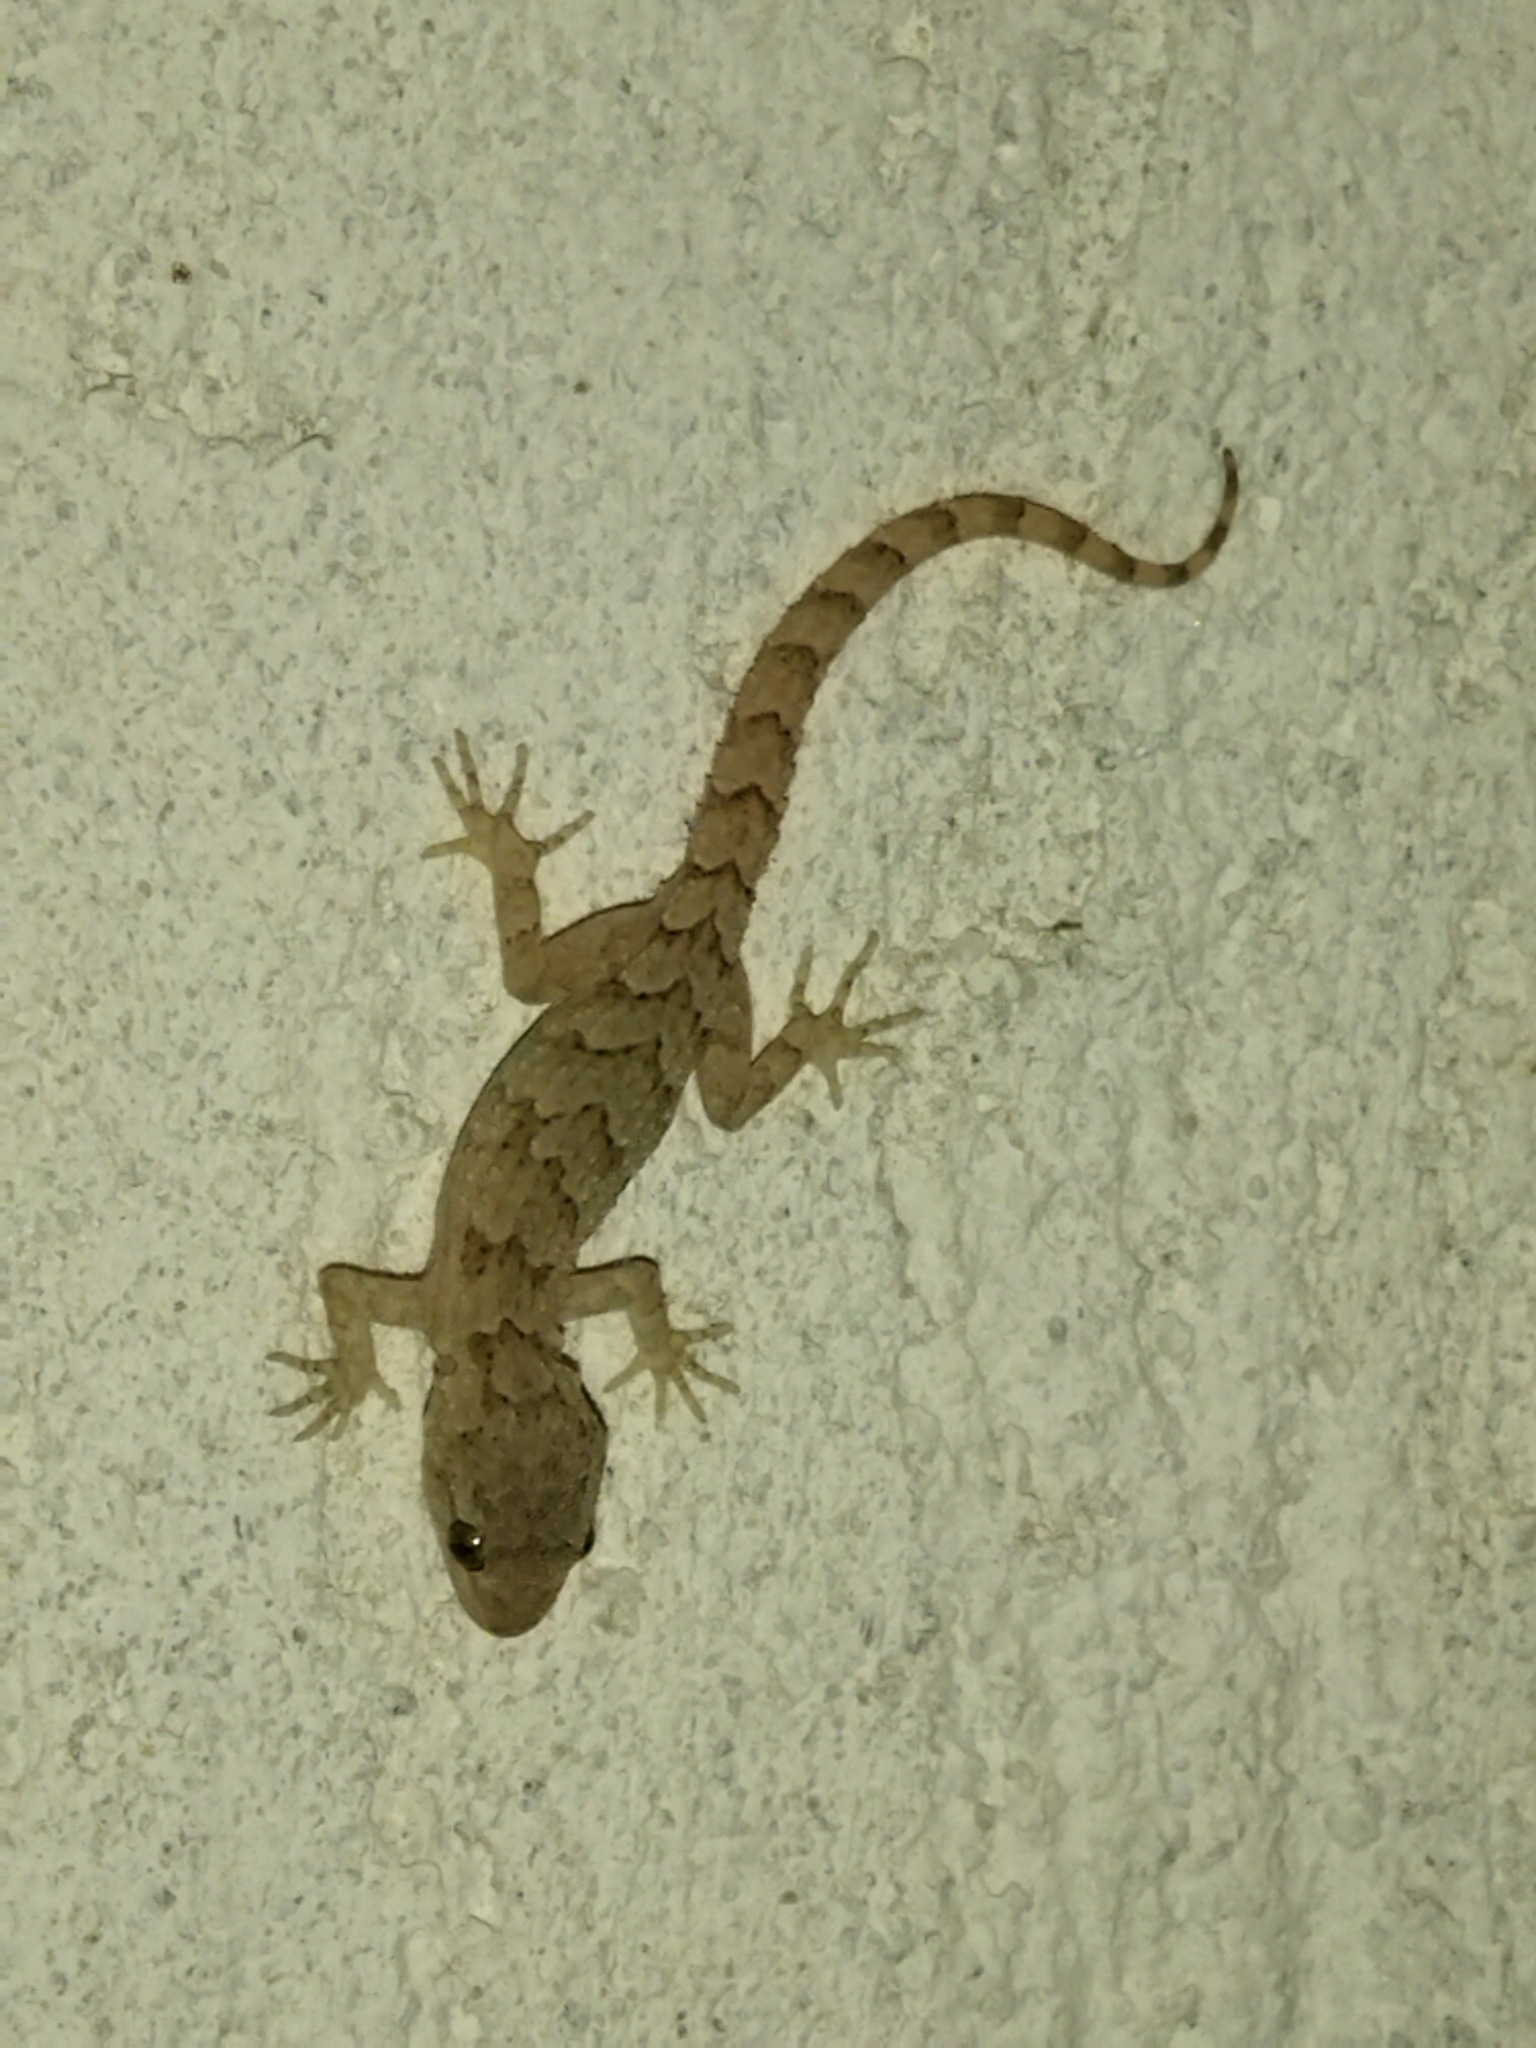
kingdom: Animalia
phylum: Chordata
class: Squamata
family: Gekkonidae
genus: Mediodactylus
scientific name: Mediodactylus kotschyi
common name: Kotschy's gecko
